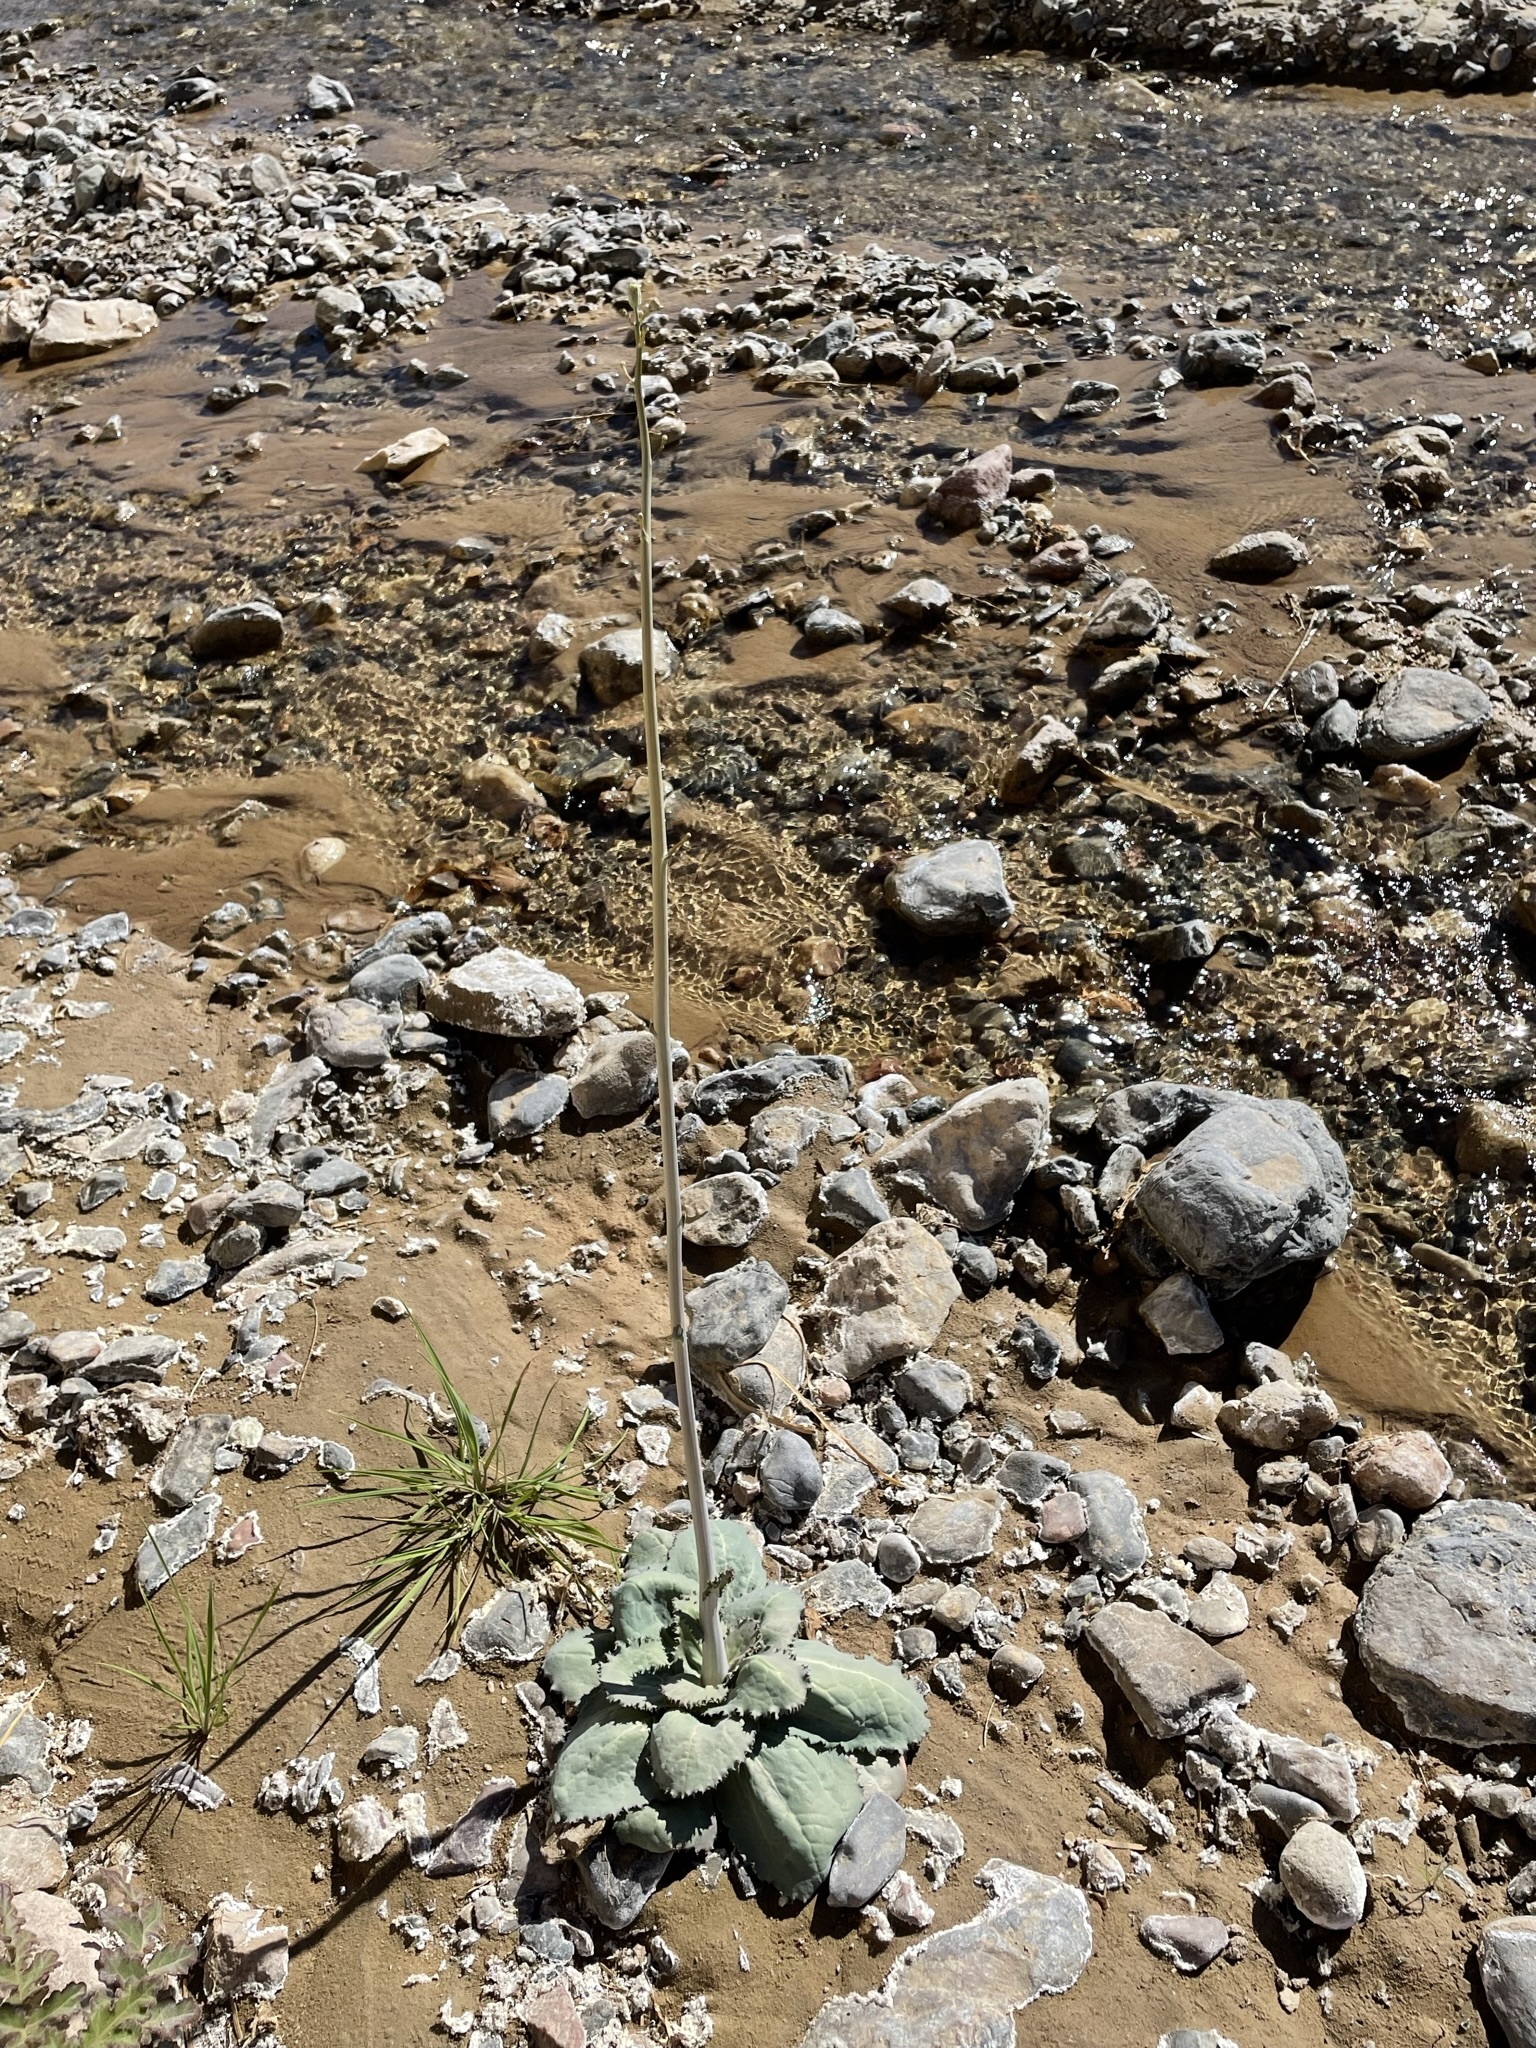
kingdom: Plantae
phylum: Tracheophyta
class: Magnoliopsida
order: Asterales
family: Asteraceae
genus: Atrichoseris
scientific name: Atrichoseris platyphylla
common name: Tobaccoweed
